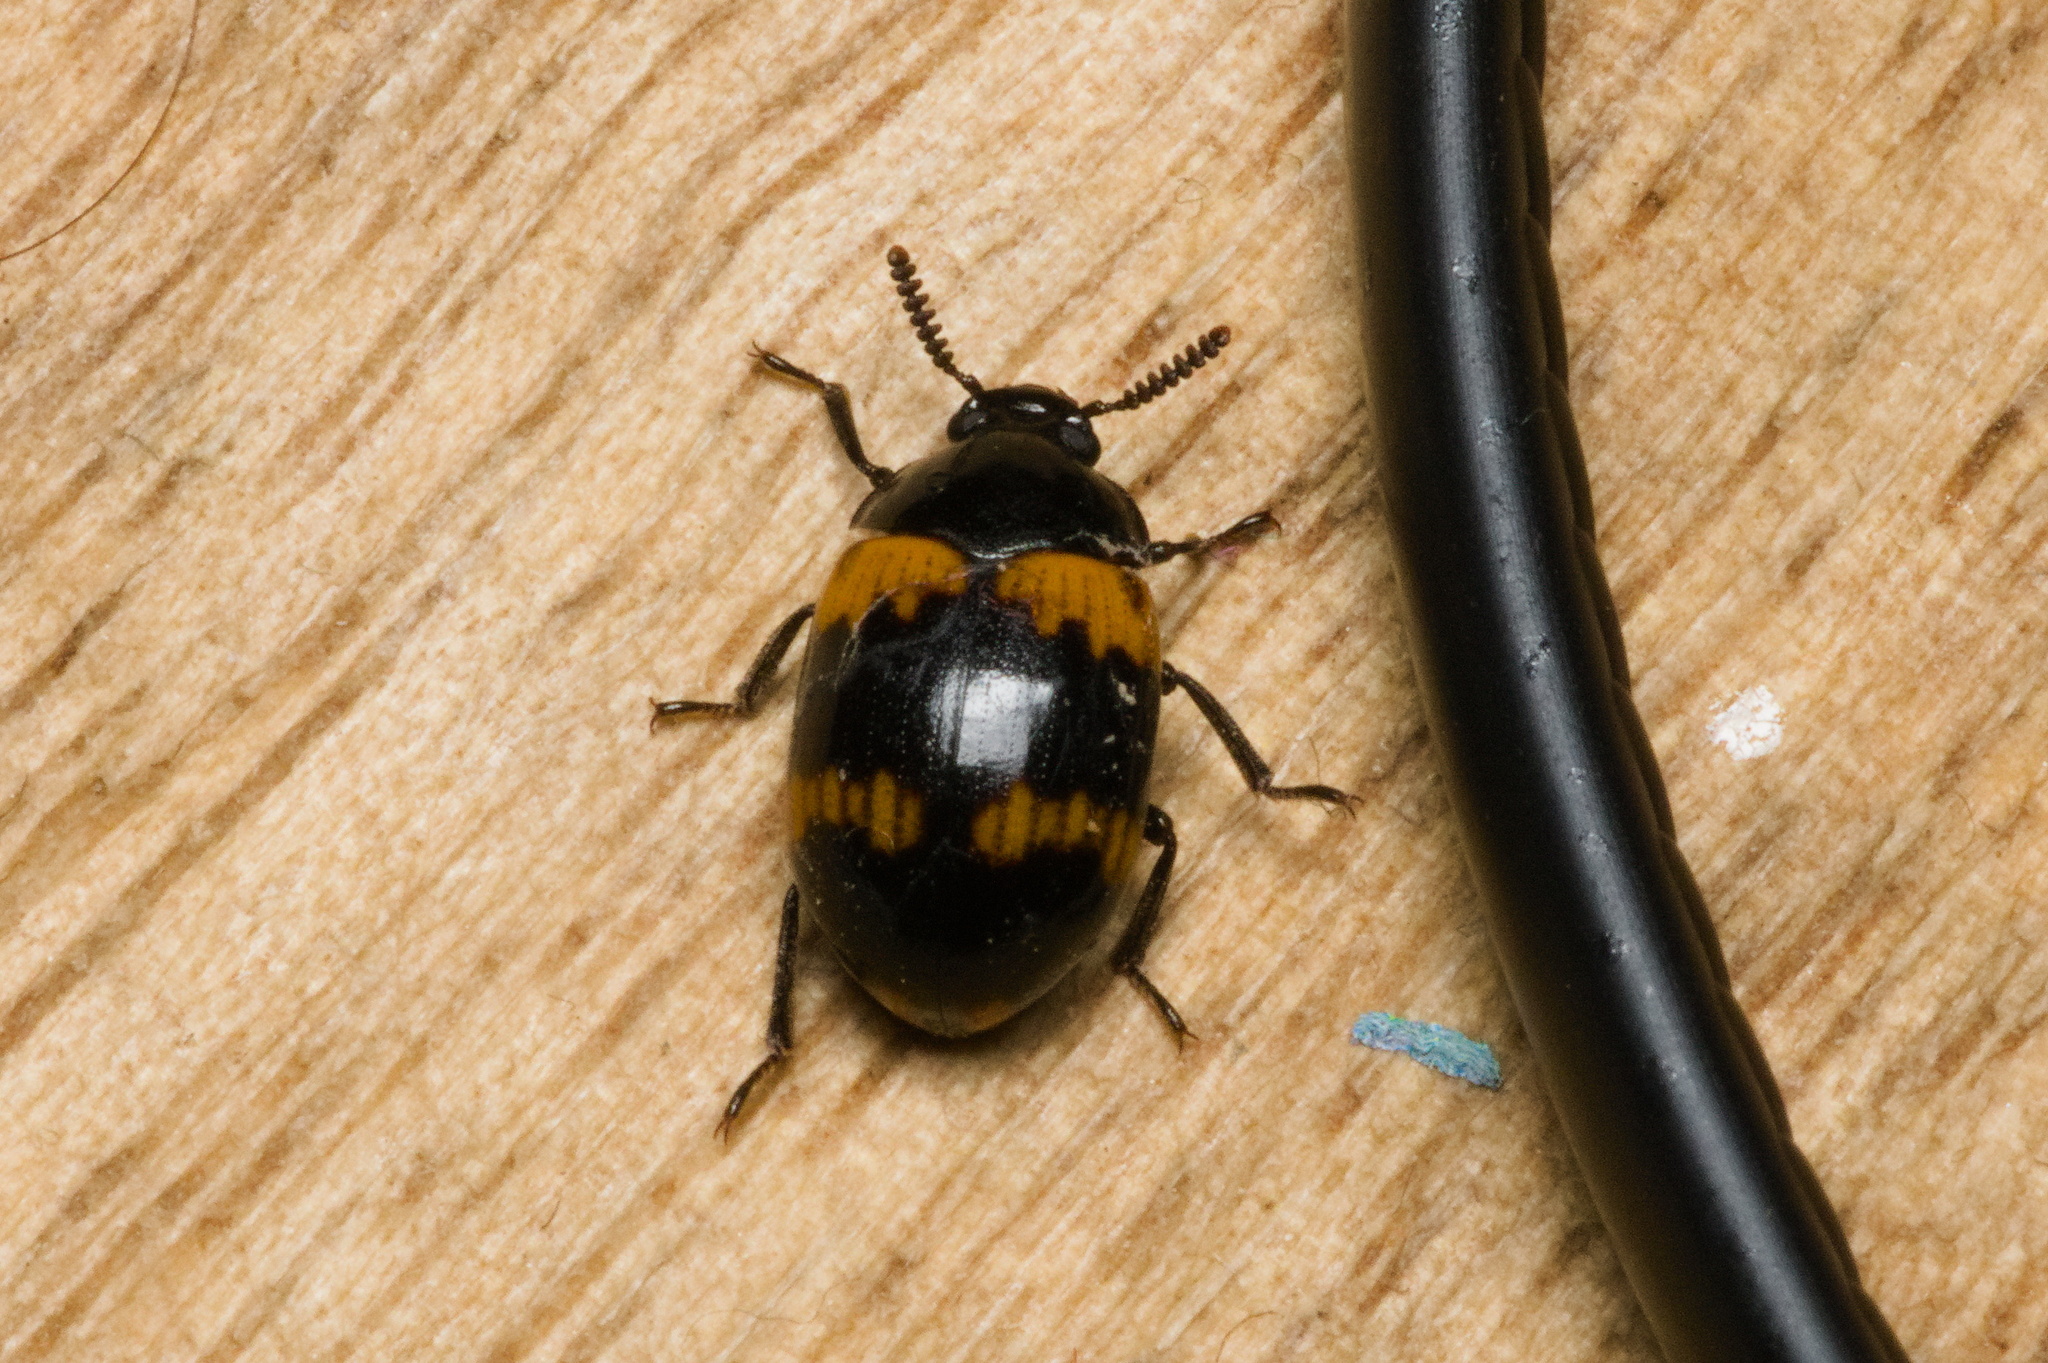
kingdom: Animalia
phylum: Arthropoda
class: Insecta
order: Coleoptera
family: Tenebrionidae
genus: Diaperis
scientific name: Diaperis boleti
